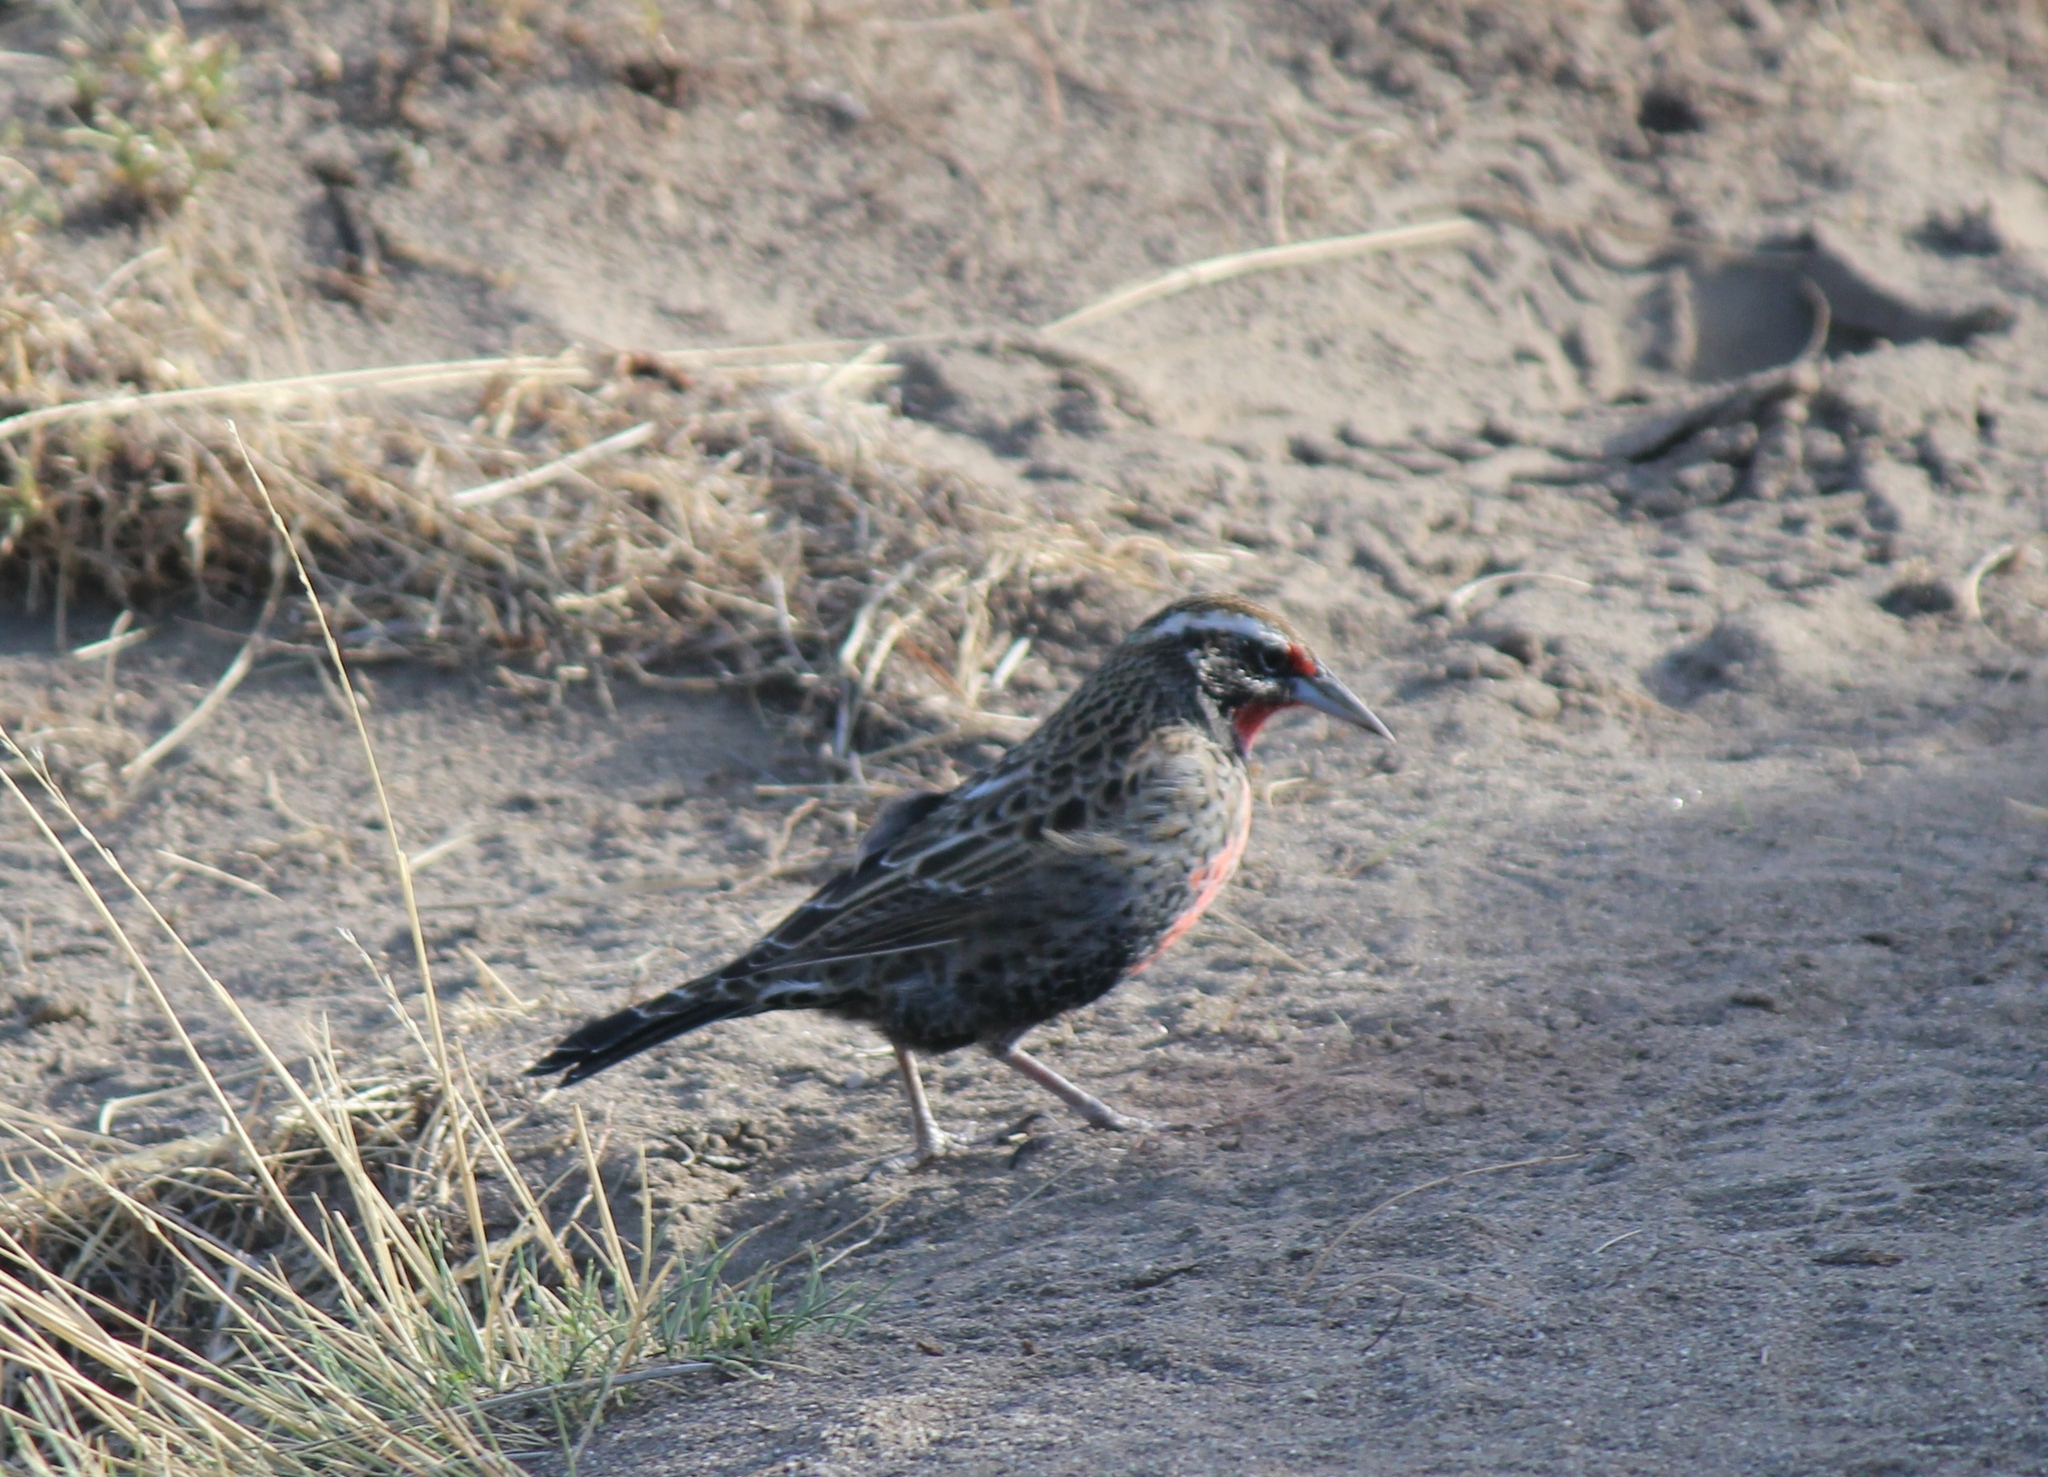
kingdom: Animalia
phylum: Chordata
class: Aves
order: Passeriformes
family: Icteridae
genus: Sturnella
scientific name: Sturnella loyca
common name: Long-tailed meadowlark
